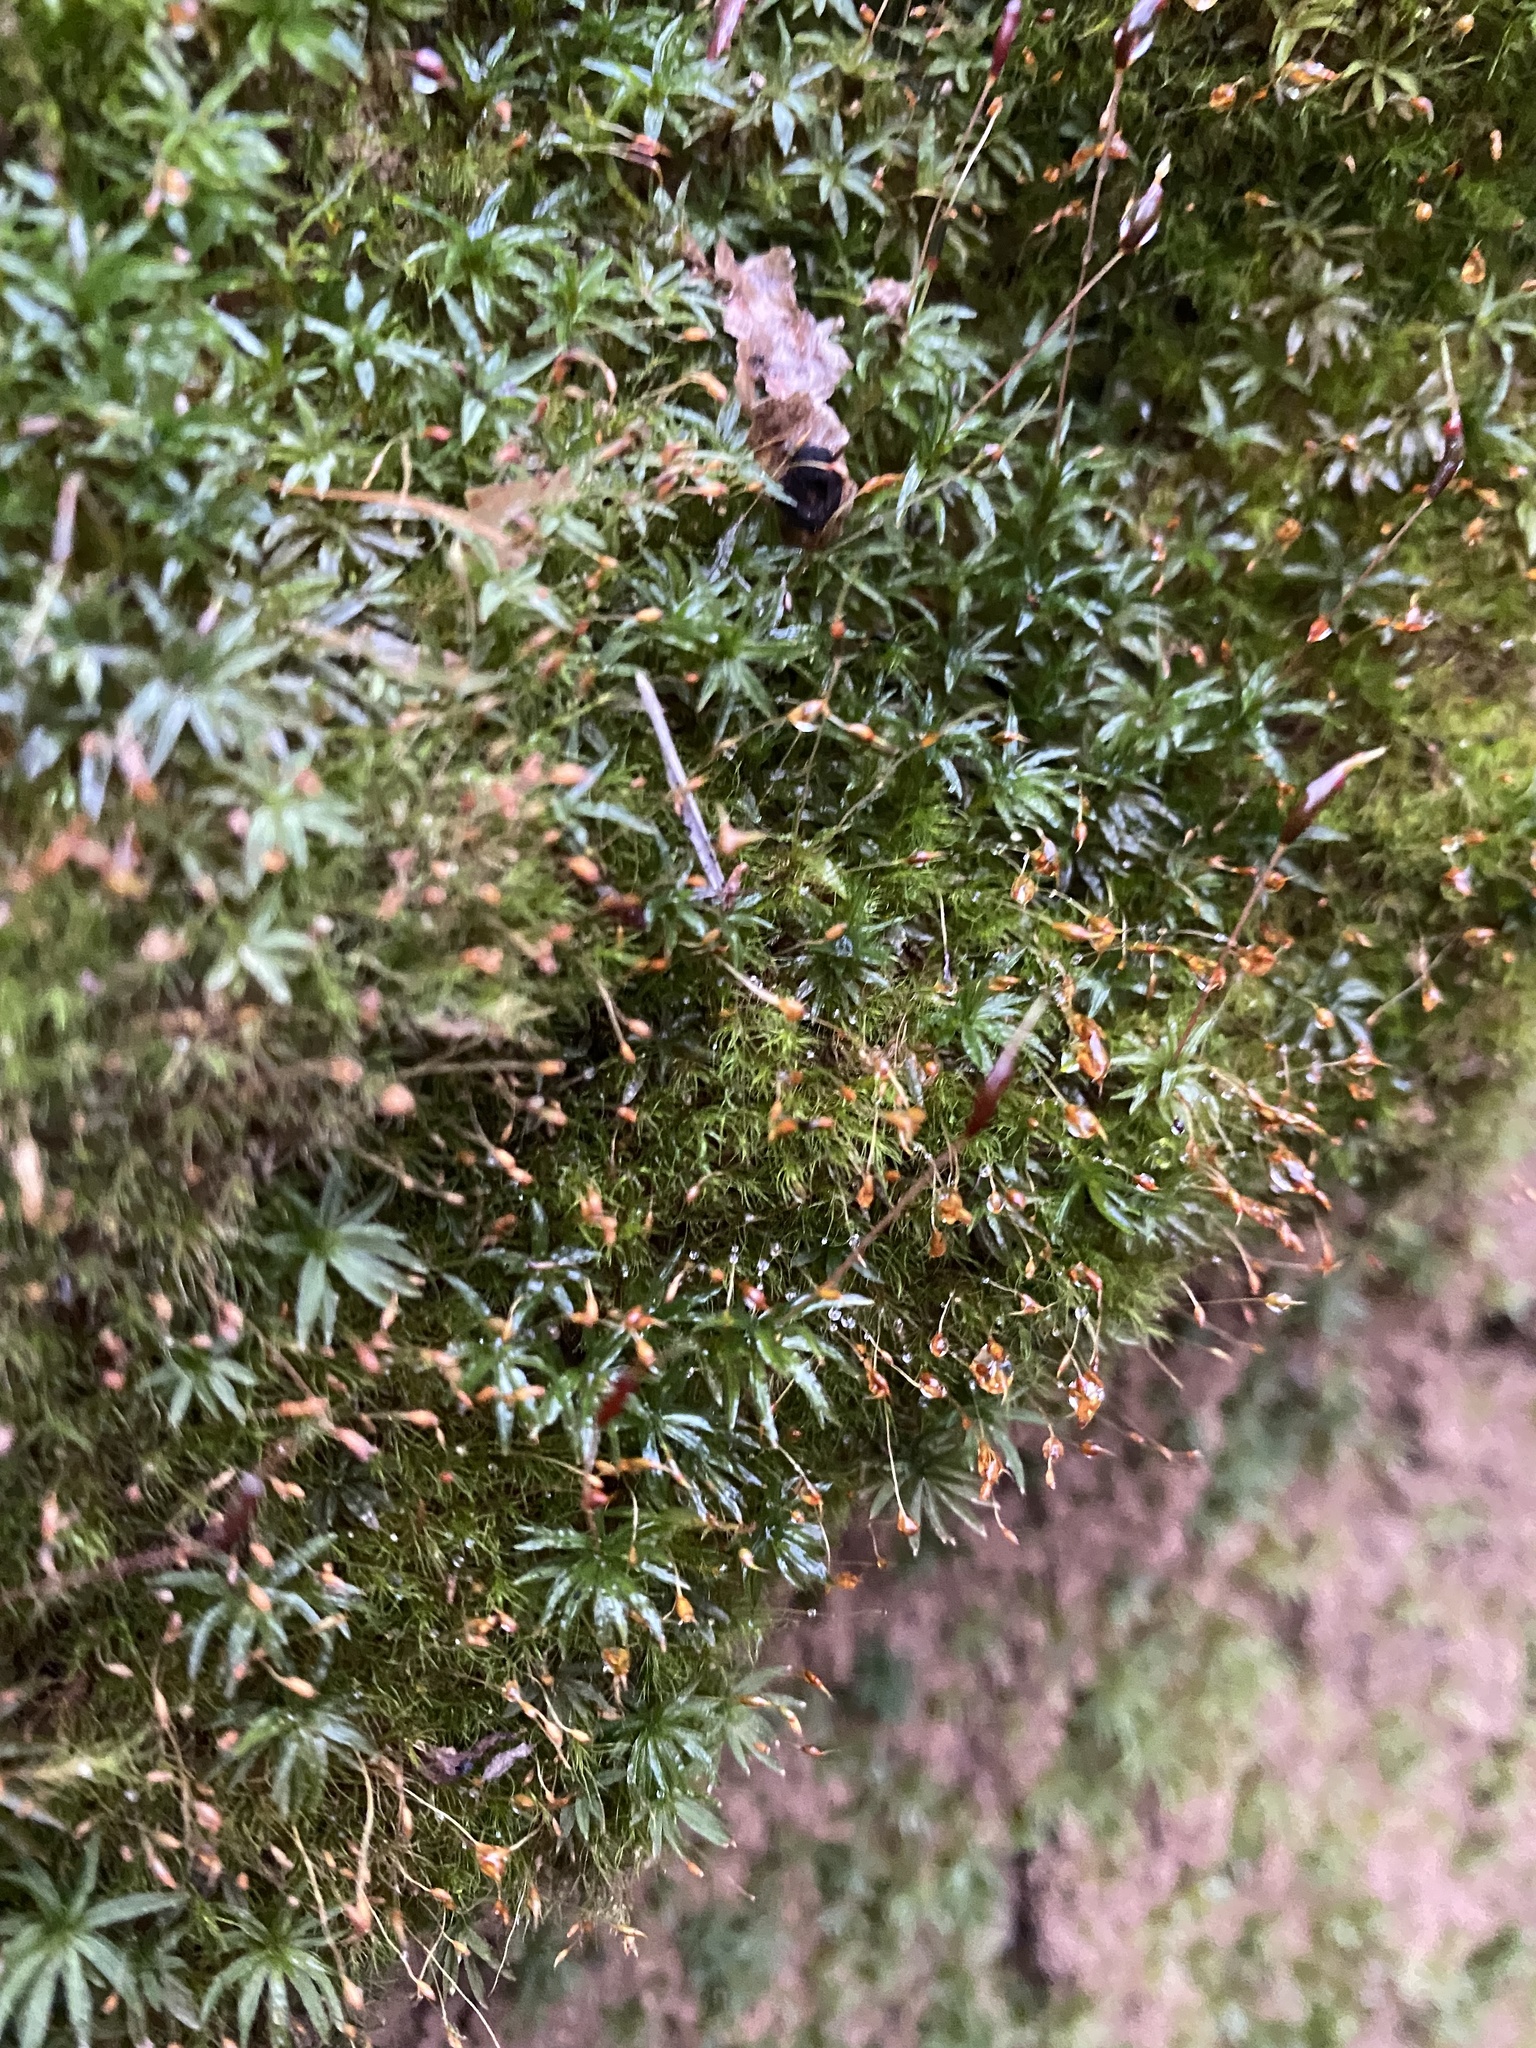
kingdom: Plantae
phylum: Bryophyta
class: Polytrichopsida
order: Polytrichales
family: Polytrichaceae
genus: Atrichum
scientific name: Atrichum undulatum
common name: Common smoothcap
